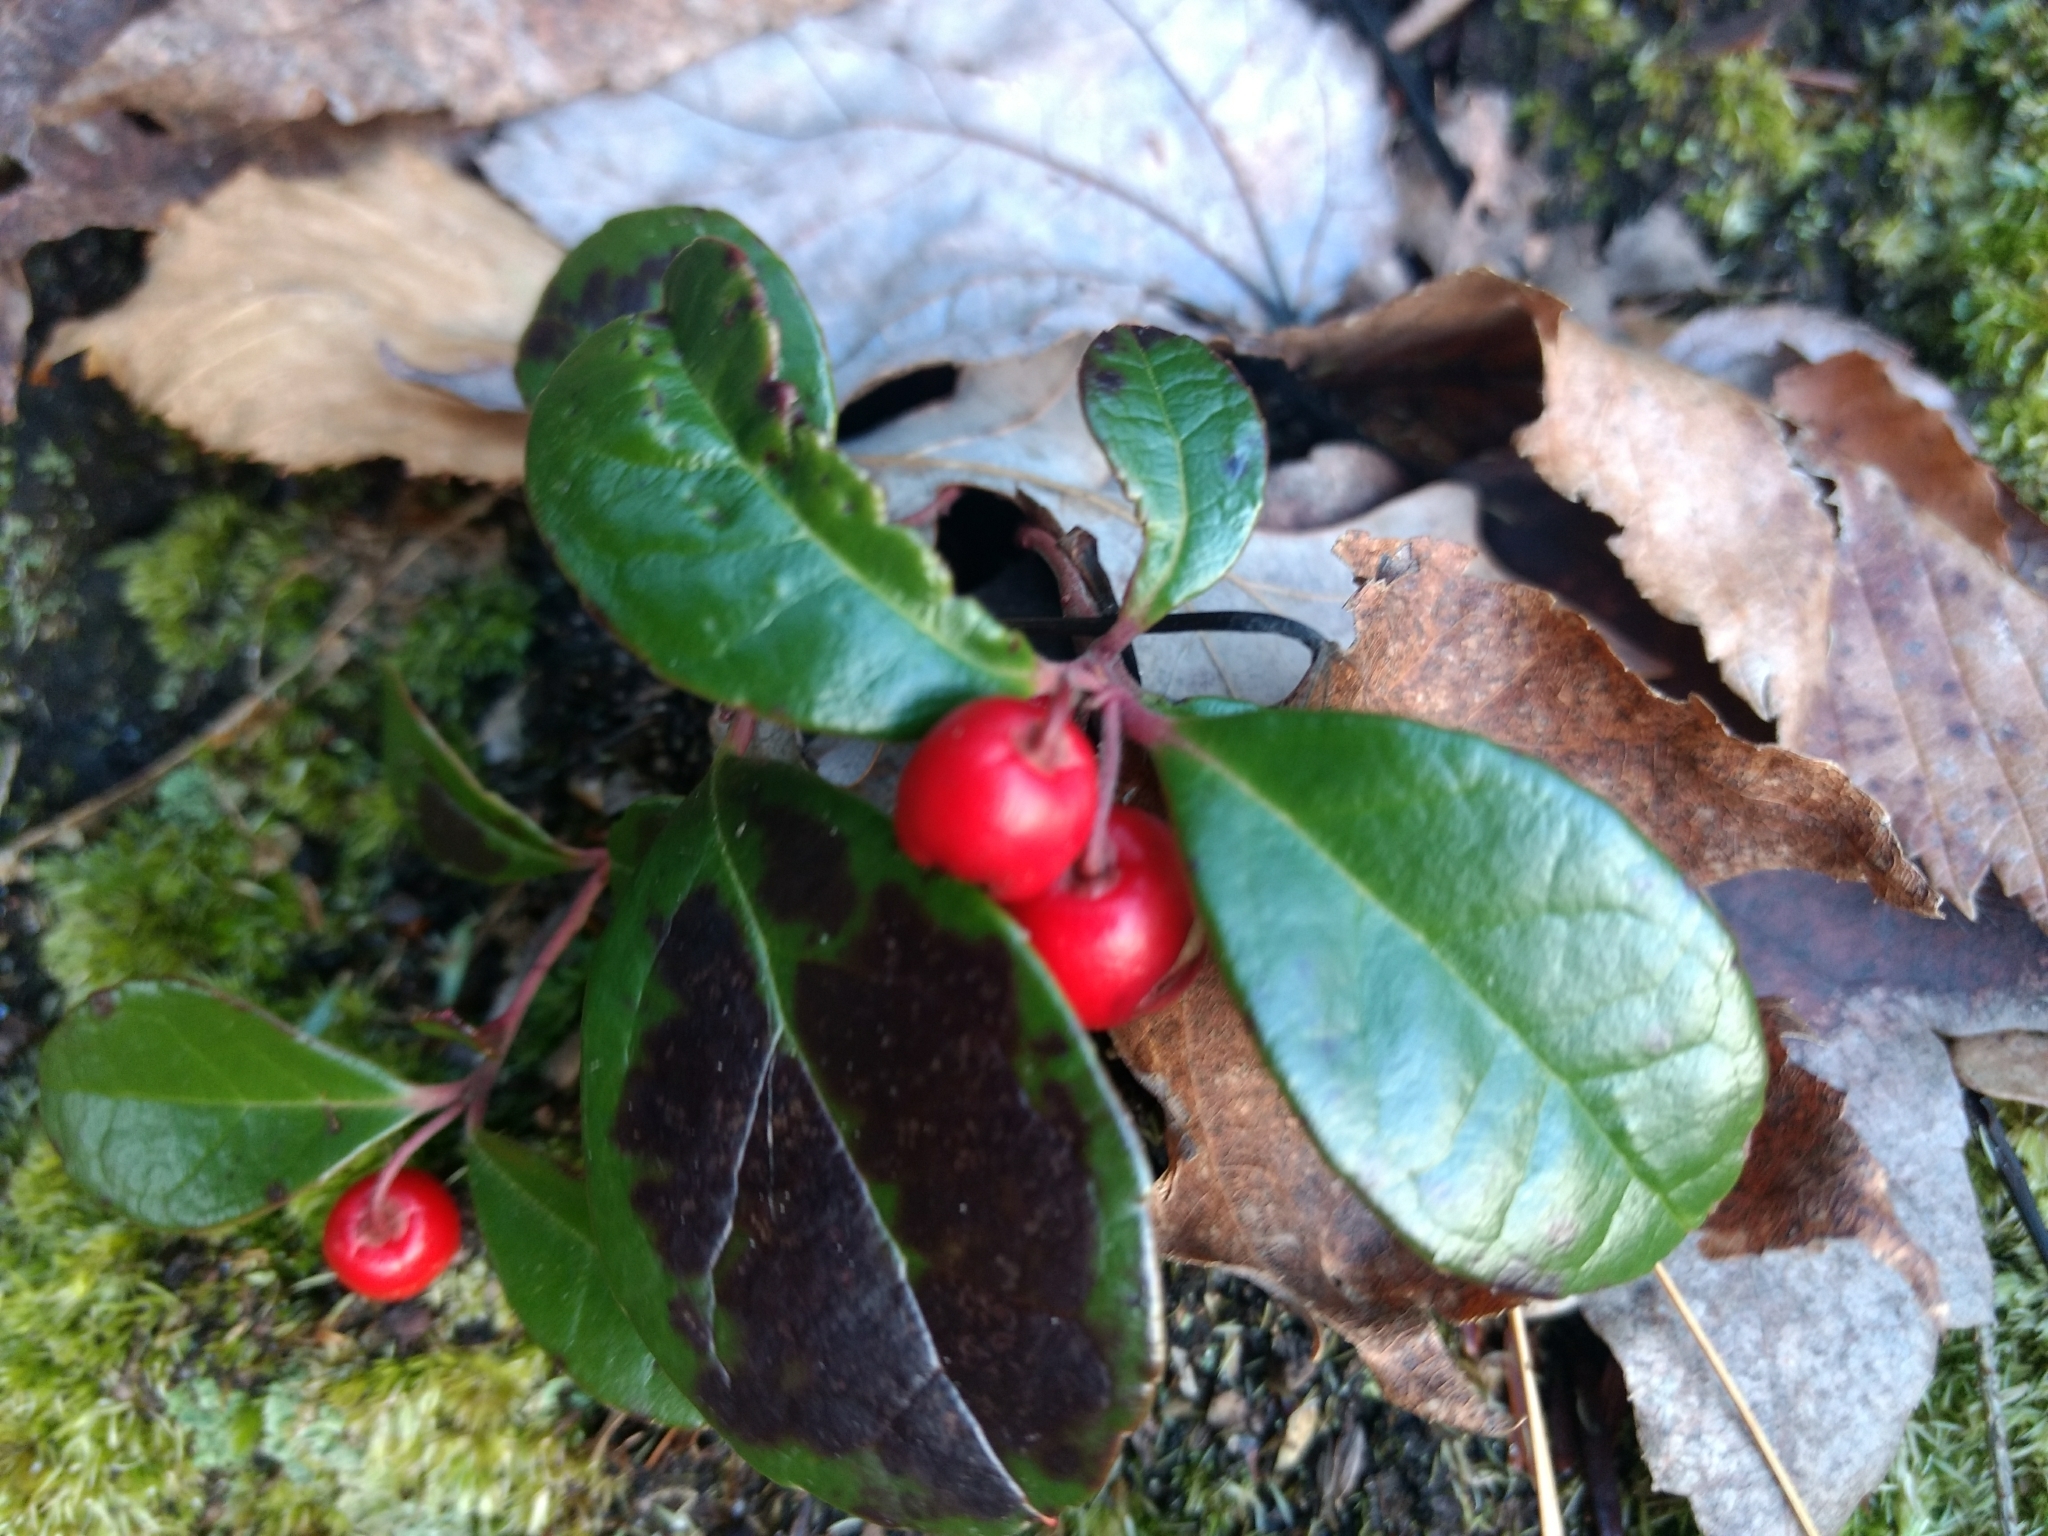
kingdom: Plantae
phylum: Tracheophyta
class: Magnoliopsida
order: Ericales
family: Ericaceae
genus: Gaultheria
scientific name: Gaultheria procumbens
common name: Checkerberry
